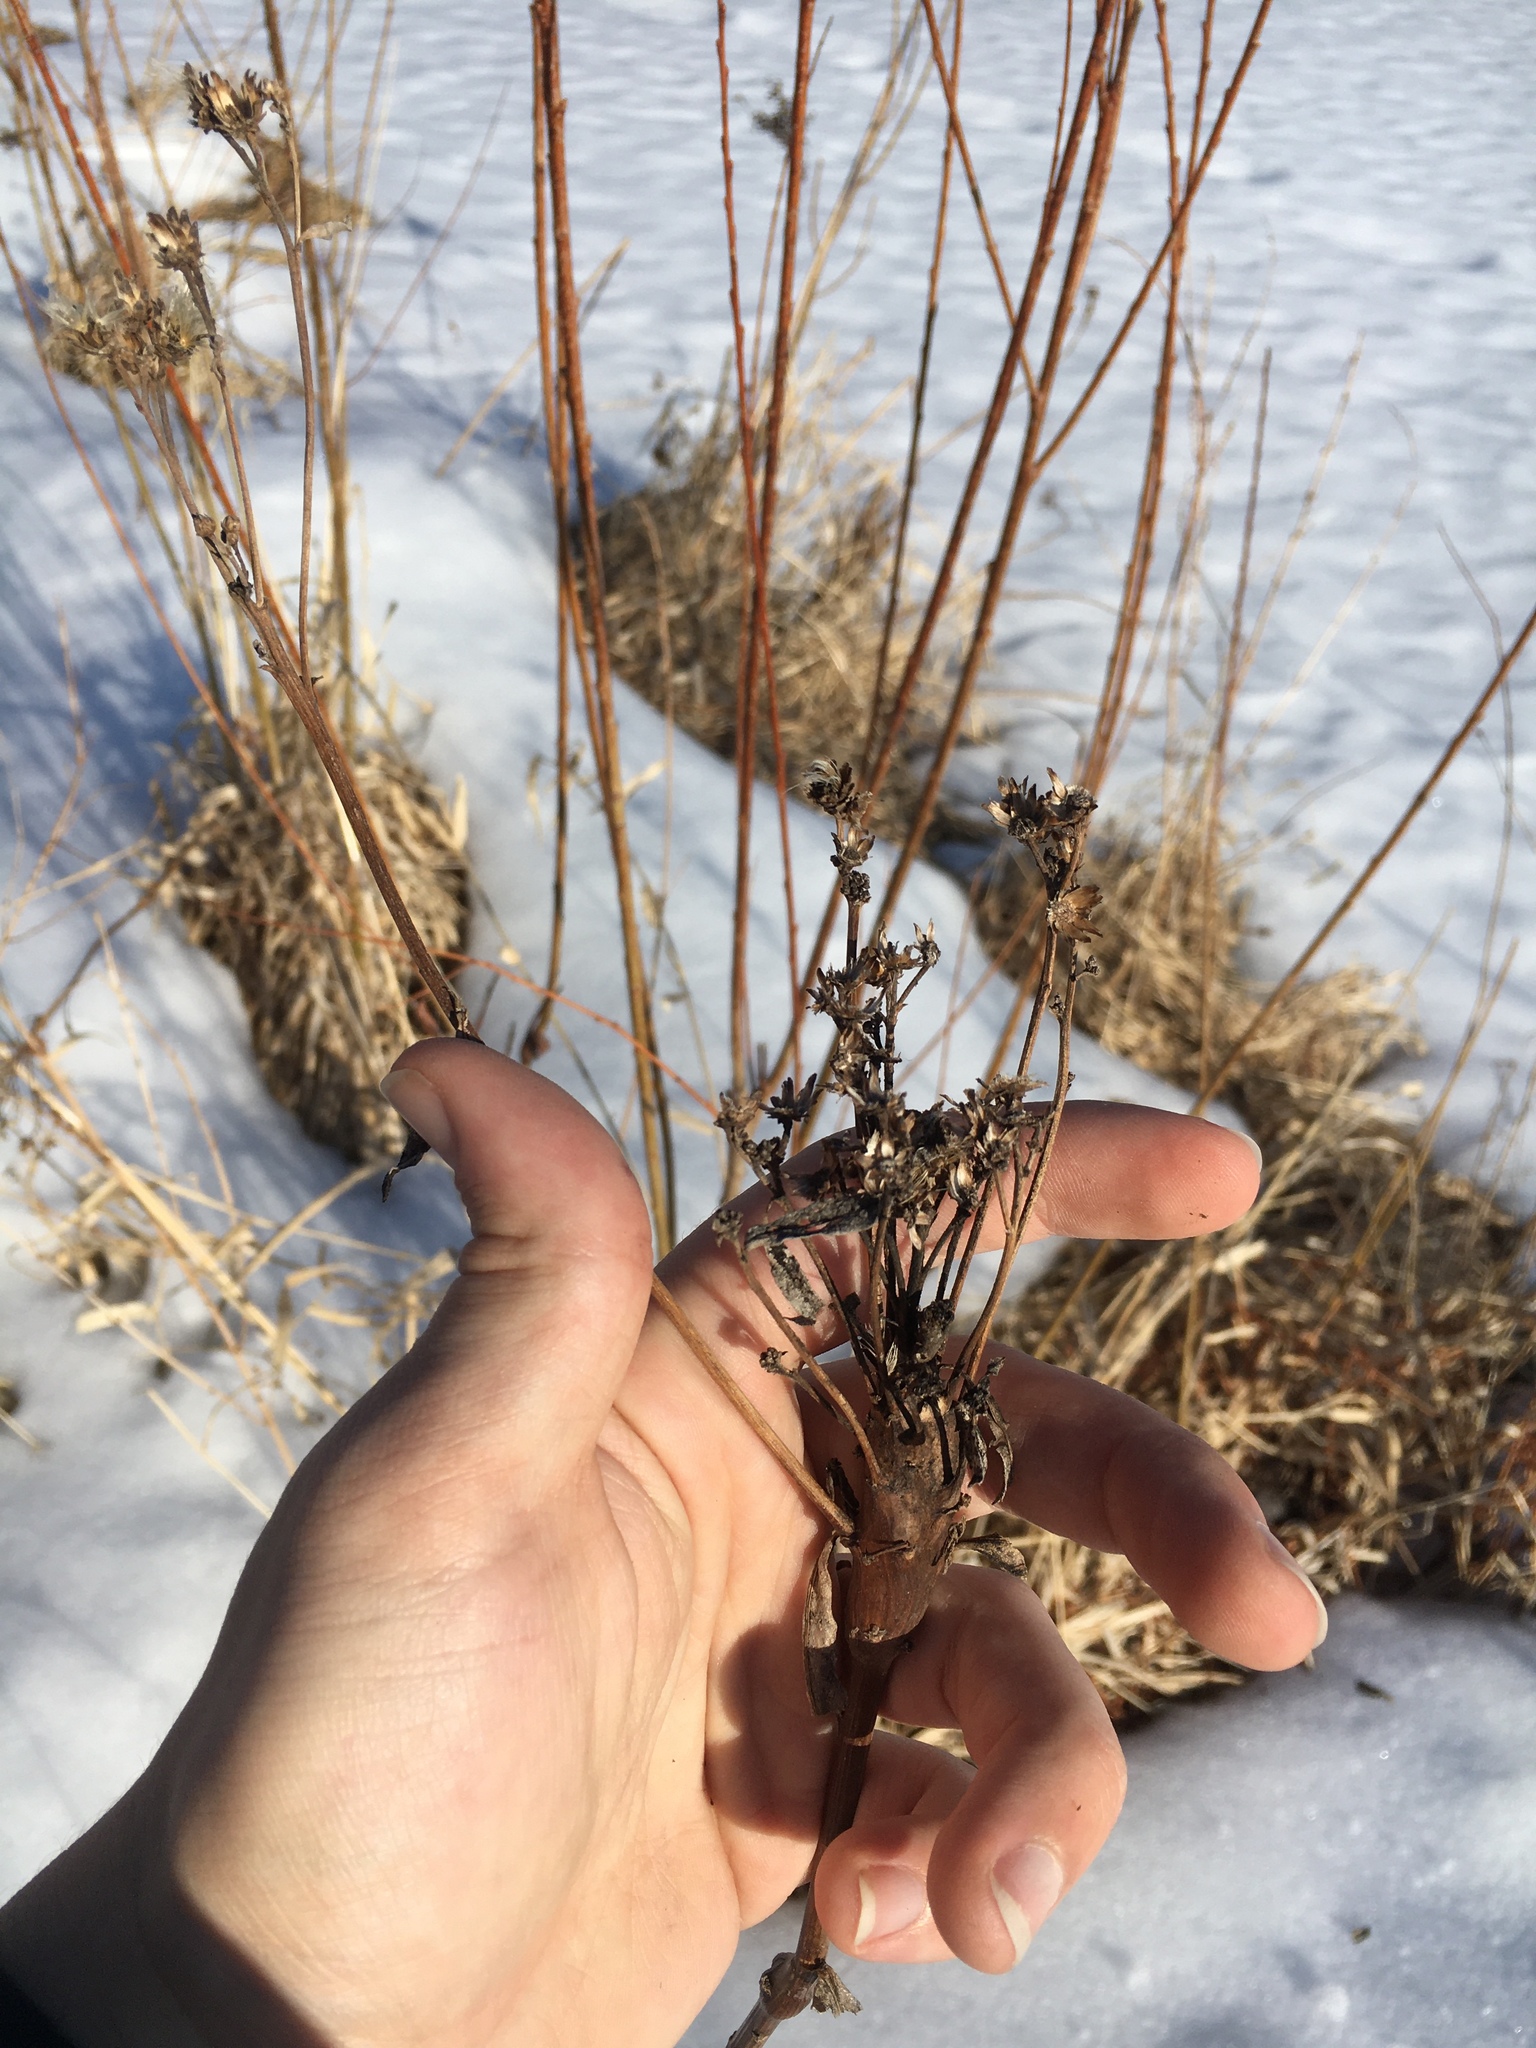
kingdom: Animalia
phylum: Arthropoda
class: Insecta
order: Diptera
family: Cecidomyiidae
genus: Neolasioptera
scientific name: Neolasioptera vernoniae
